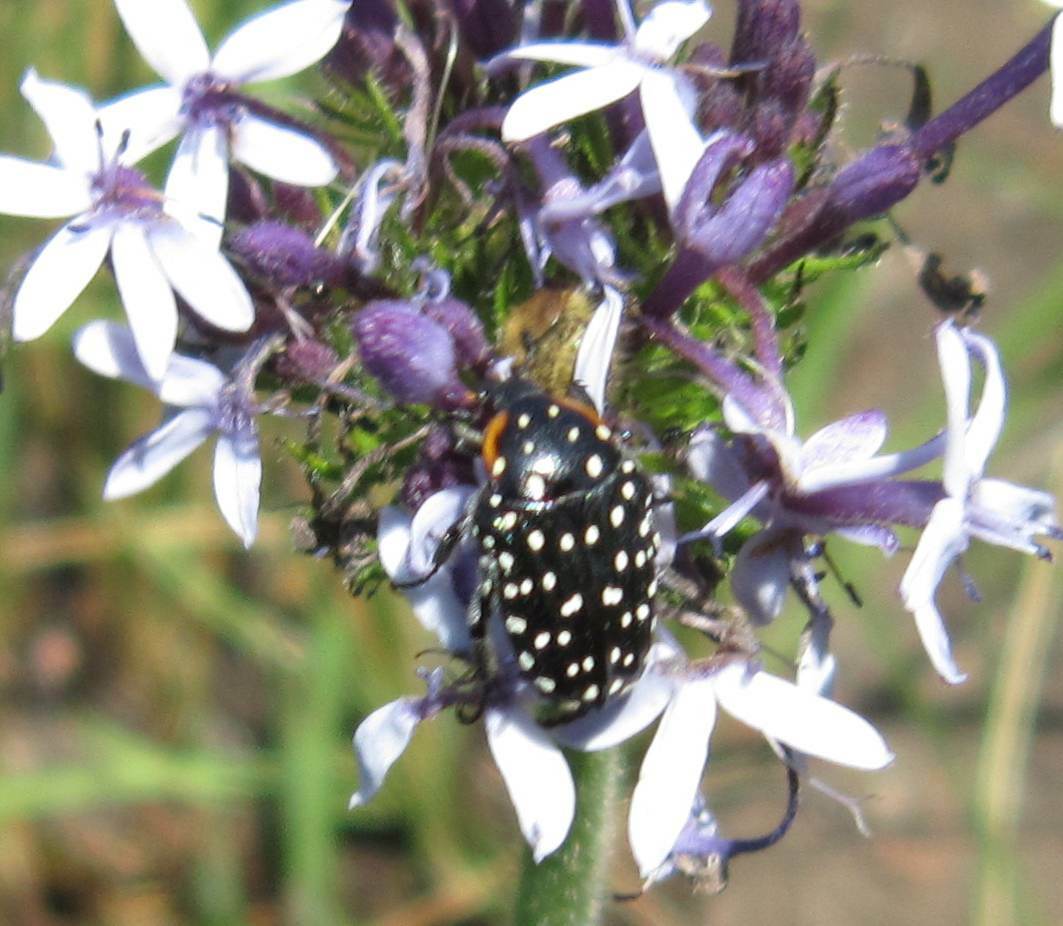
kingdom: Animalia
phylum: Arthropoda
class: Insecta
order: Coleoptera
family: Scarabaeidae
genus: Oxythyrea
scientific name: Oxythyrea
